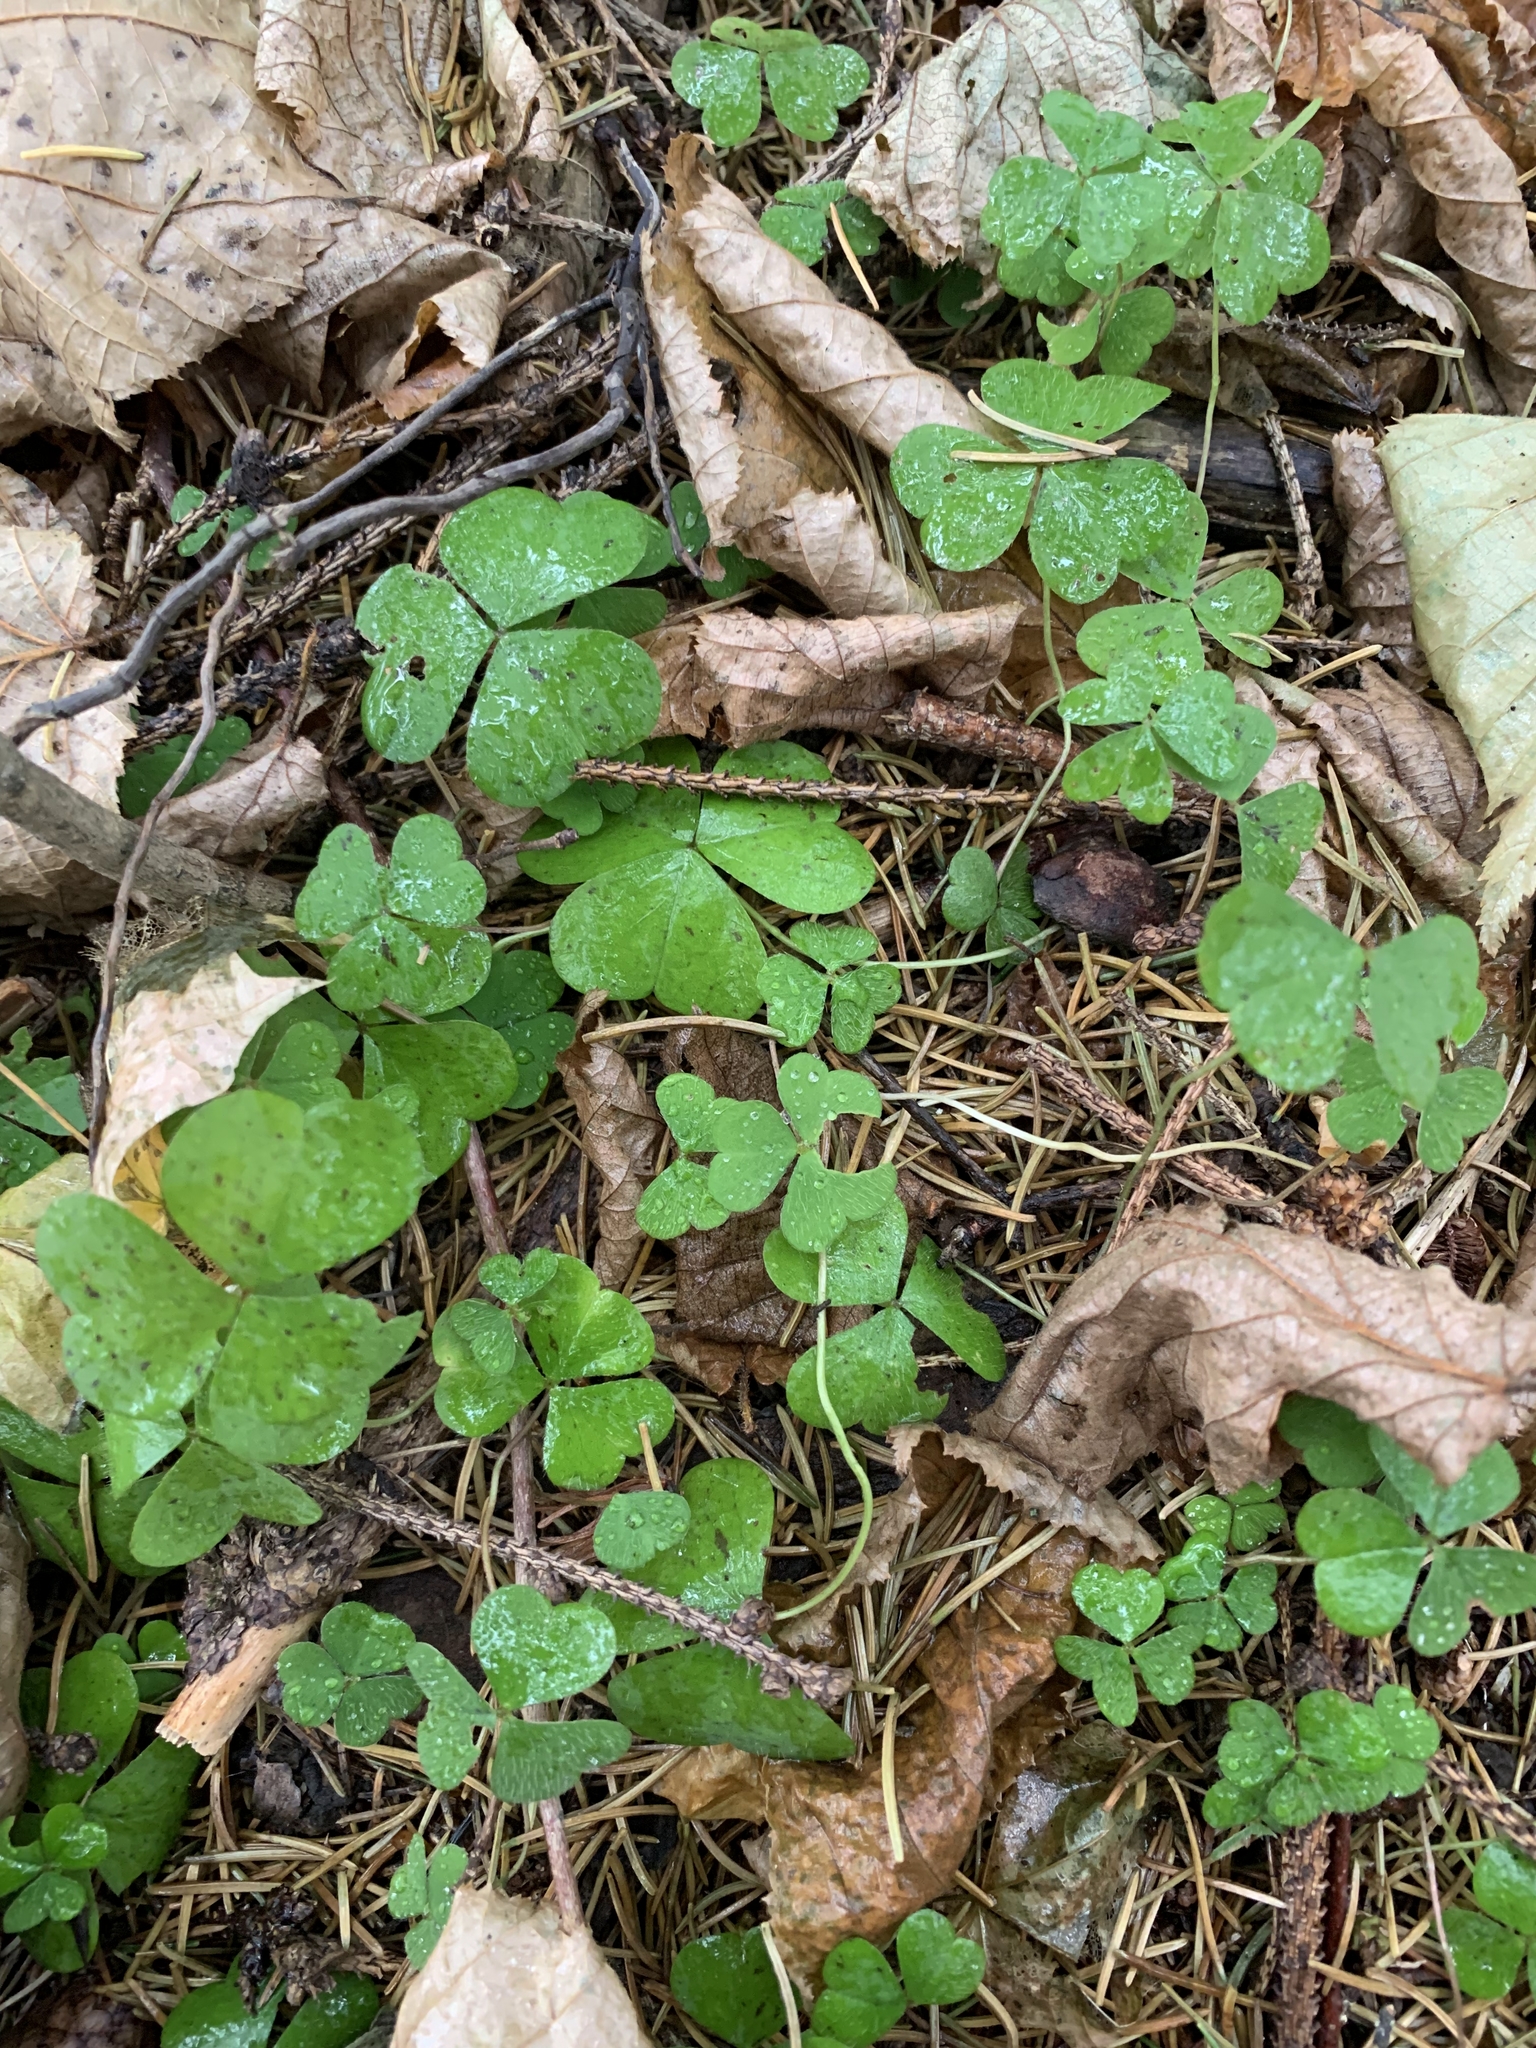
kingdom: Plantae
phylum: Tracheophyta
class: Magnoliopsida
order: Oxalidales
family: Oxalidaceae
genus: Oxalis
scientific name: Oxalis acetosella
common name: Wood-sorrel
